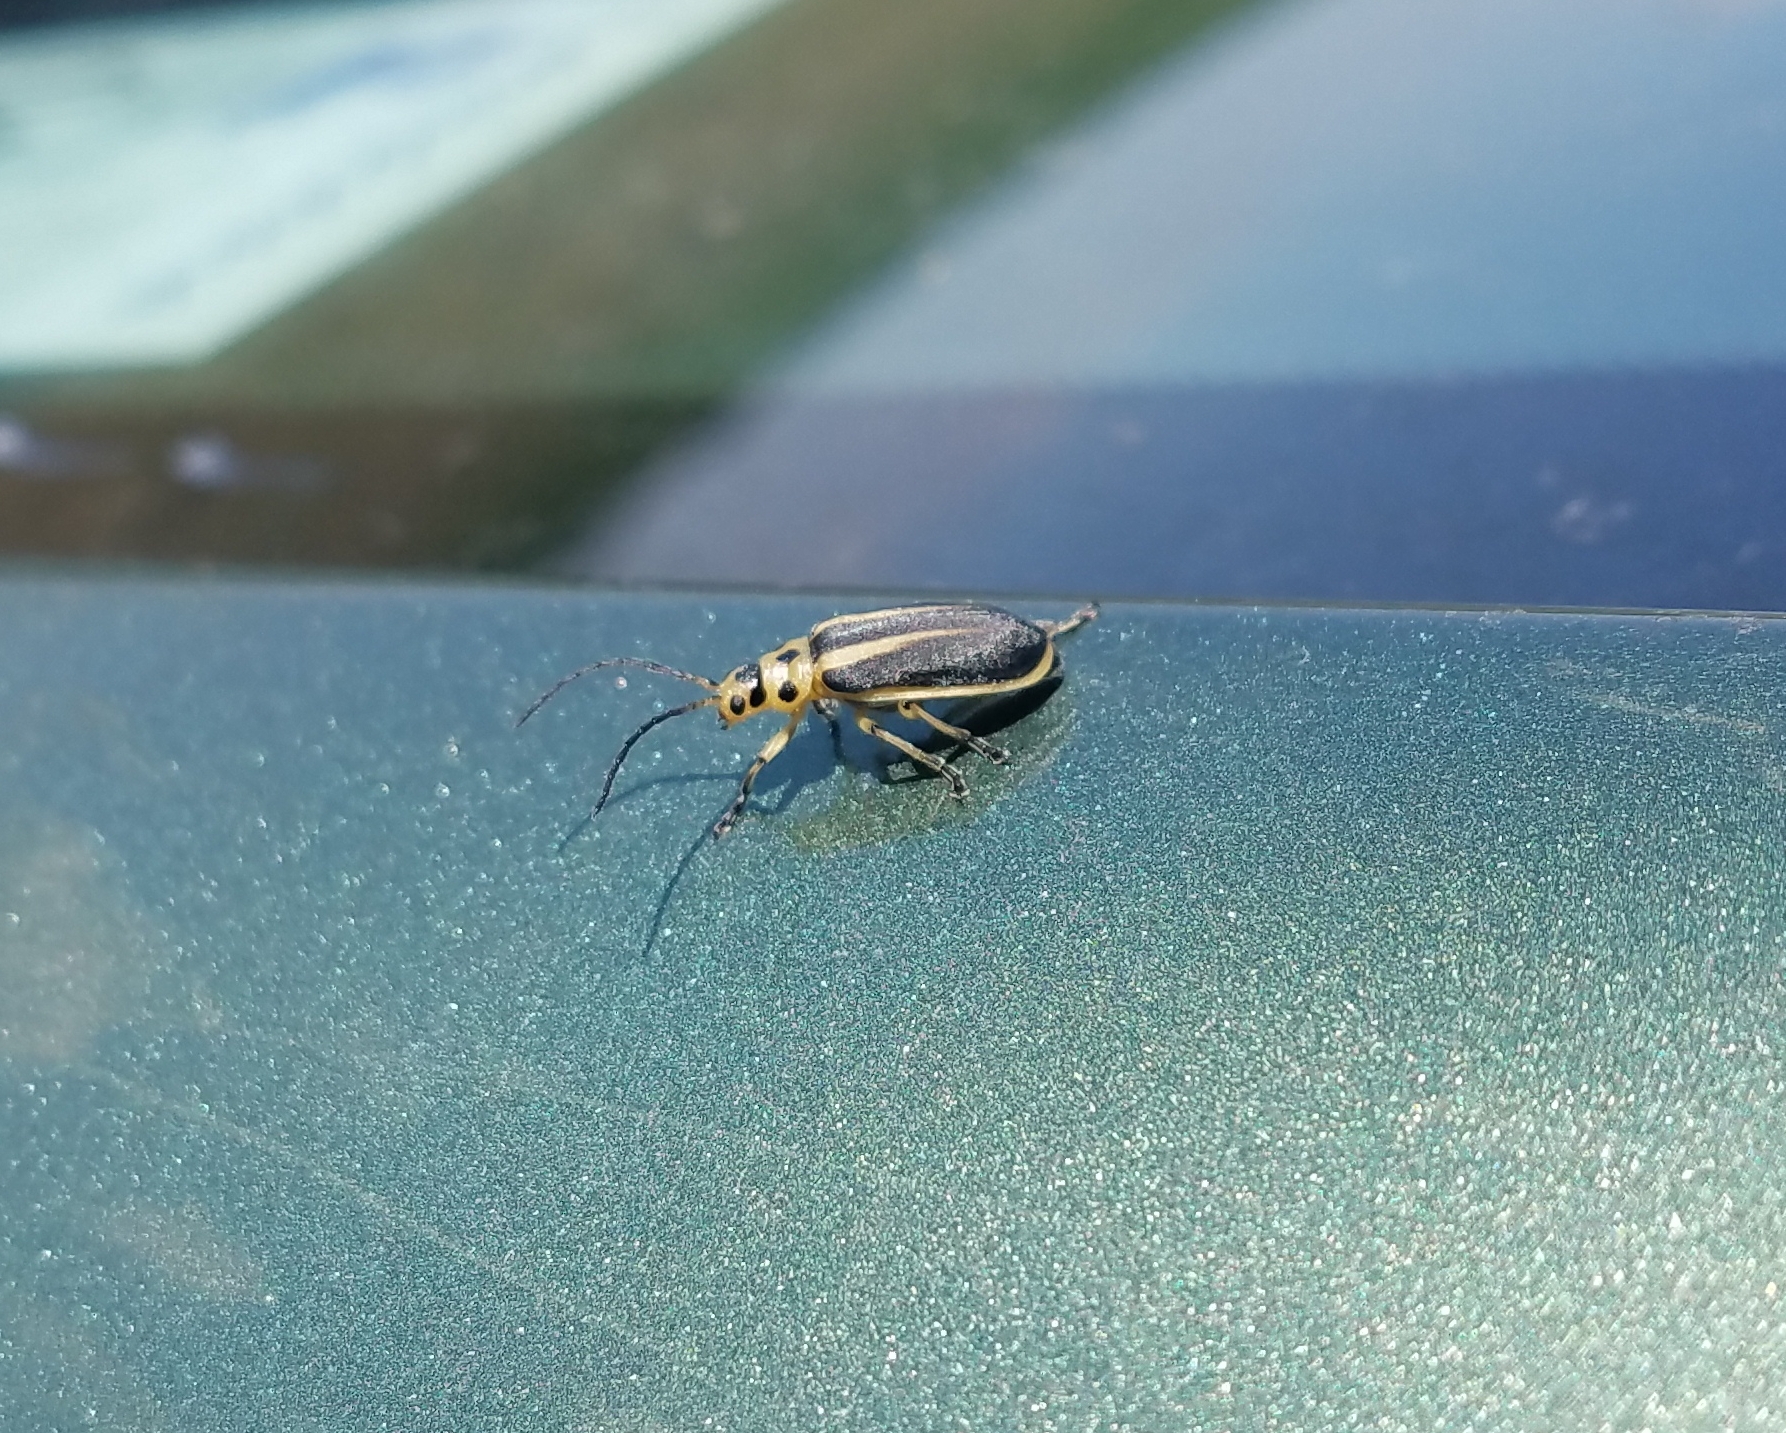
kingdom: Animalia
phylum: Arthropoda
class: Insecta
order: Coleoptera
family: Chrysomelidae
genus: Trirhabda
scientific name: Trirhabda bacharidis
